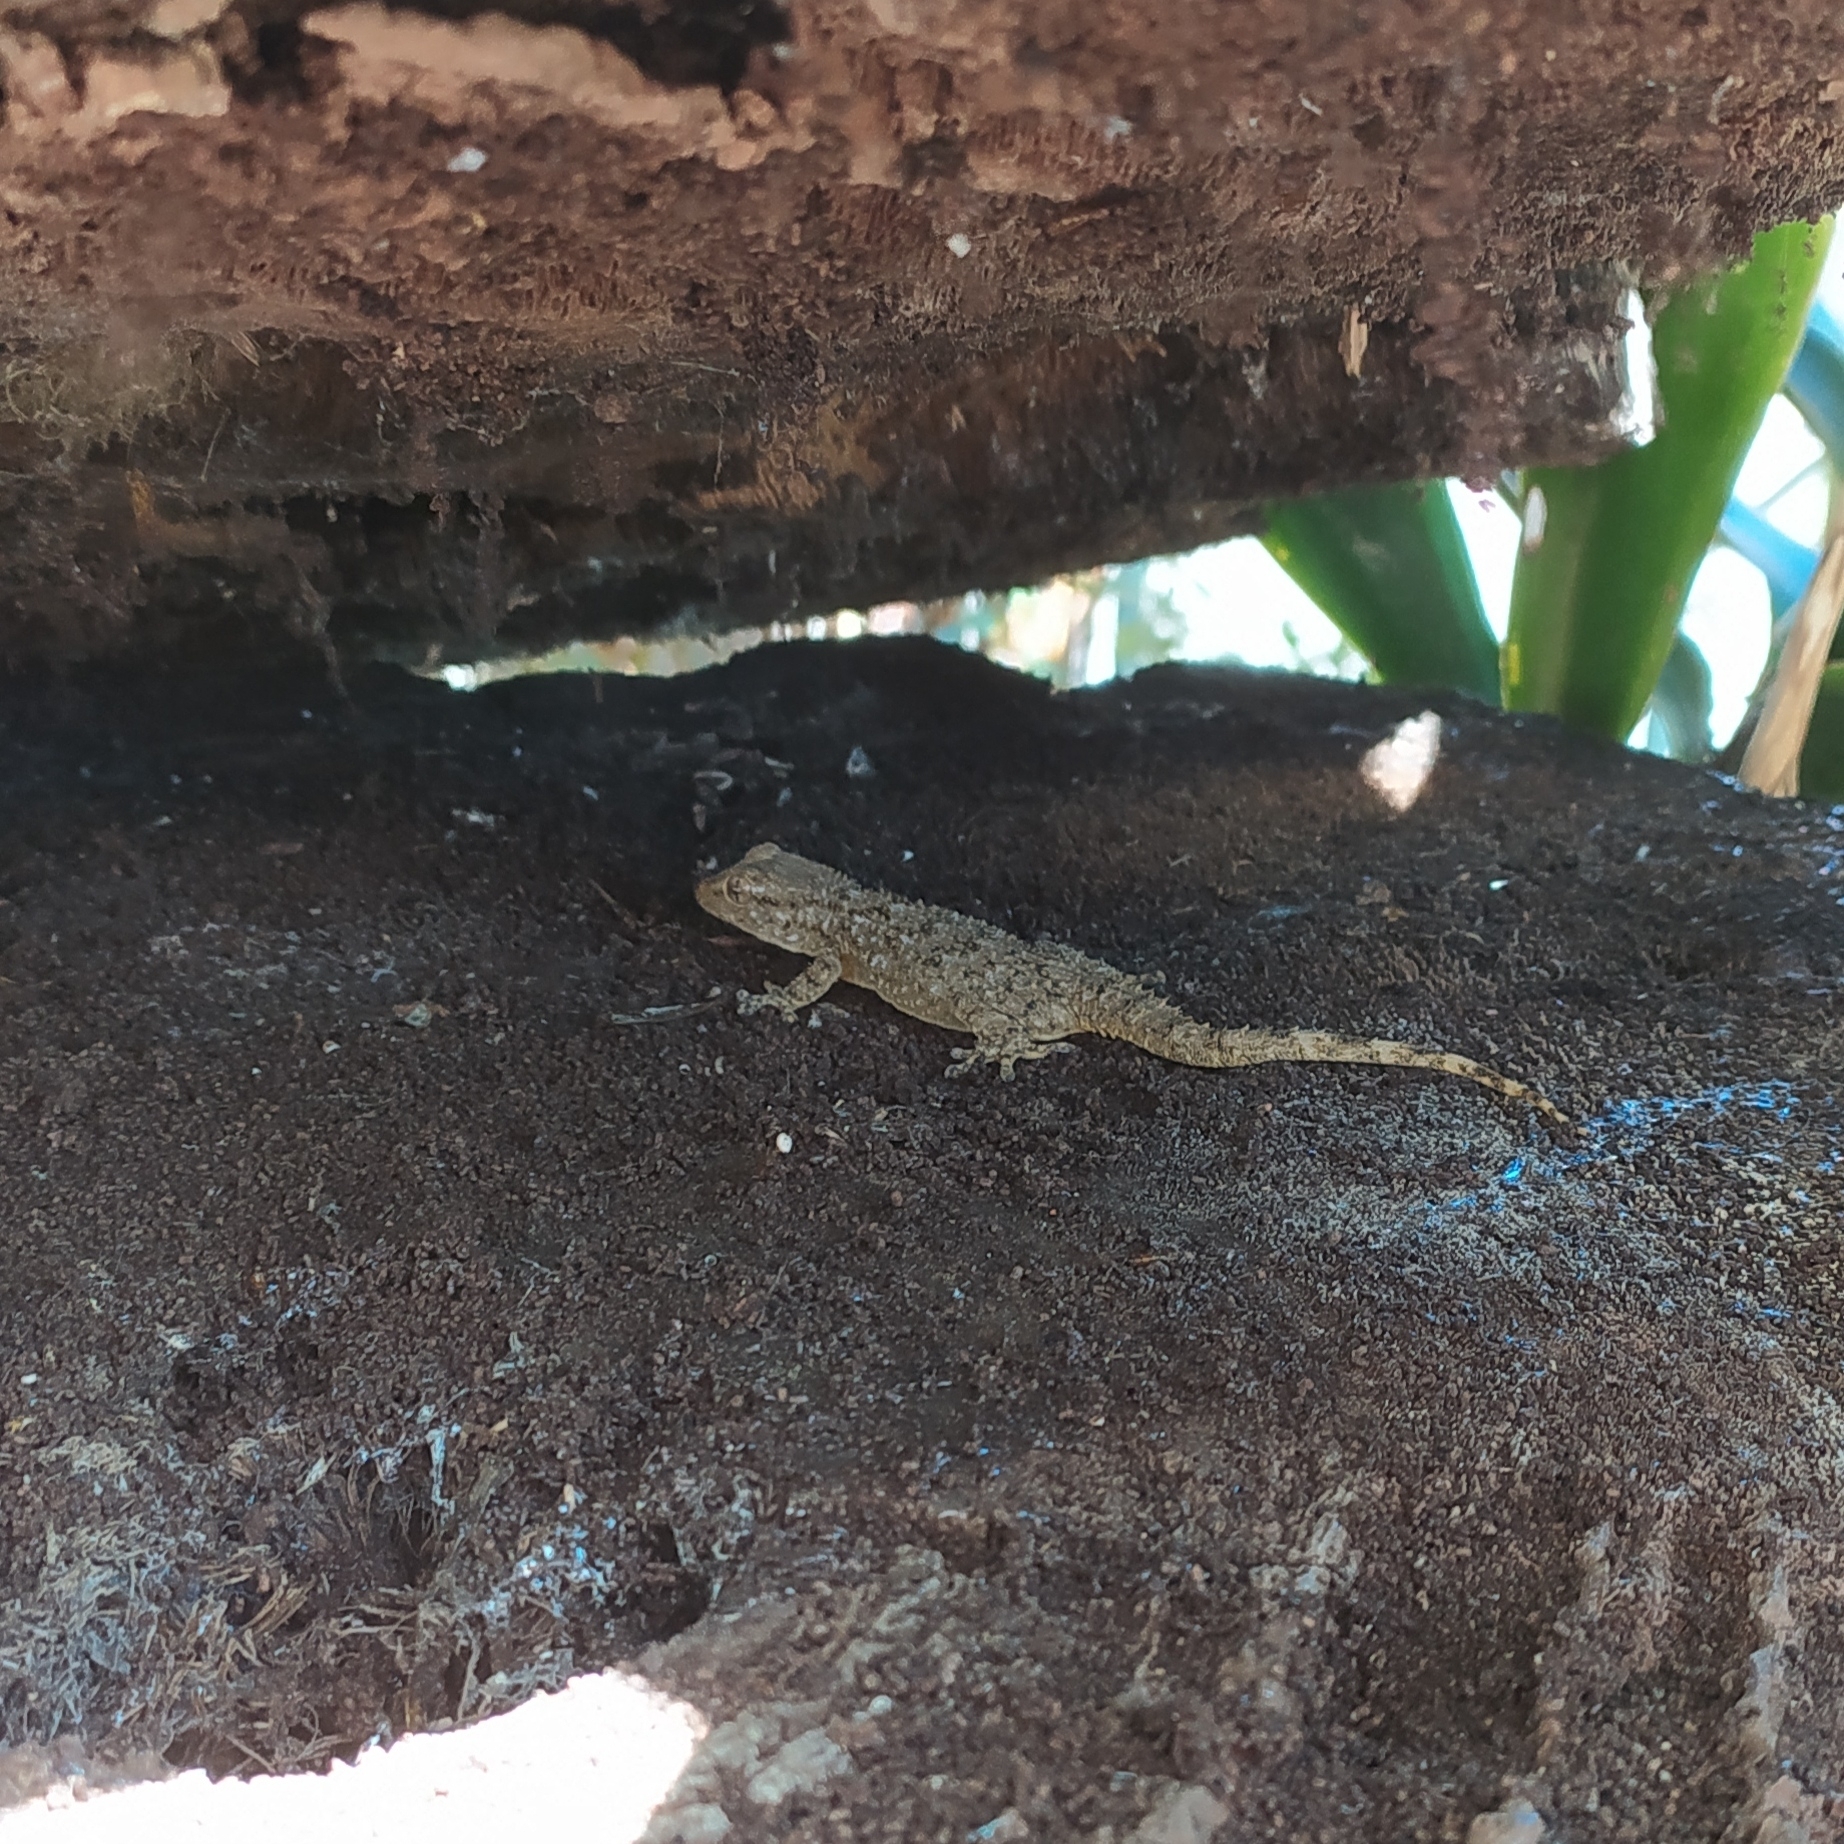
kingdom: Animalia
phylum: Chordata
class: Squamata
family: Phyllodactylidae
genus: Tarentola
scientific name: Tarentola mauritanica
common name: Moorish gecko
